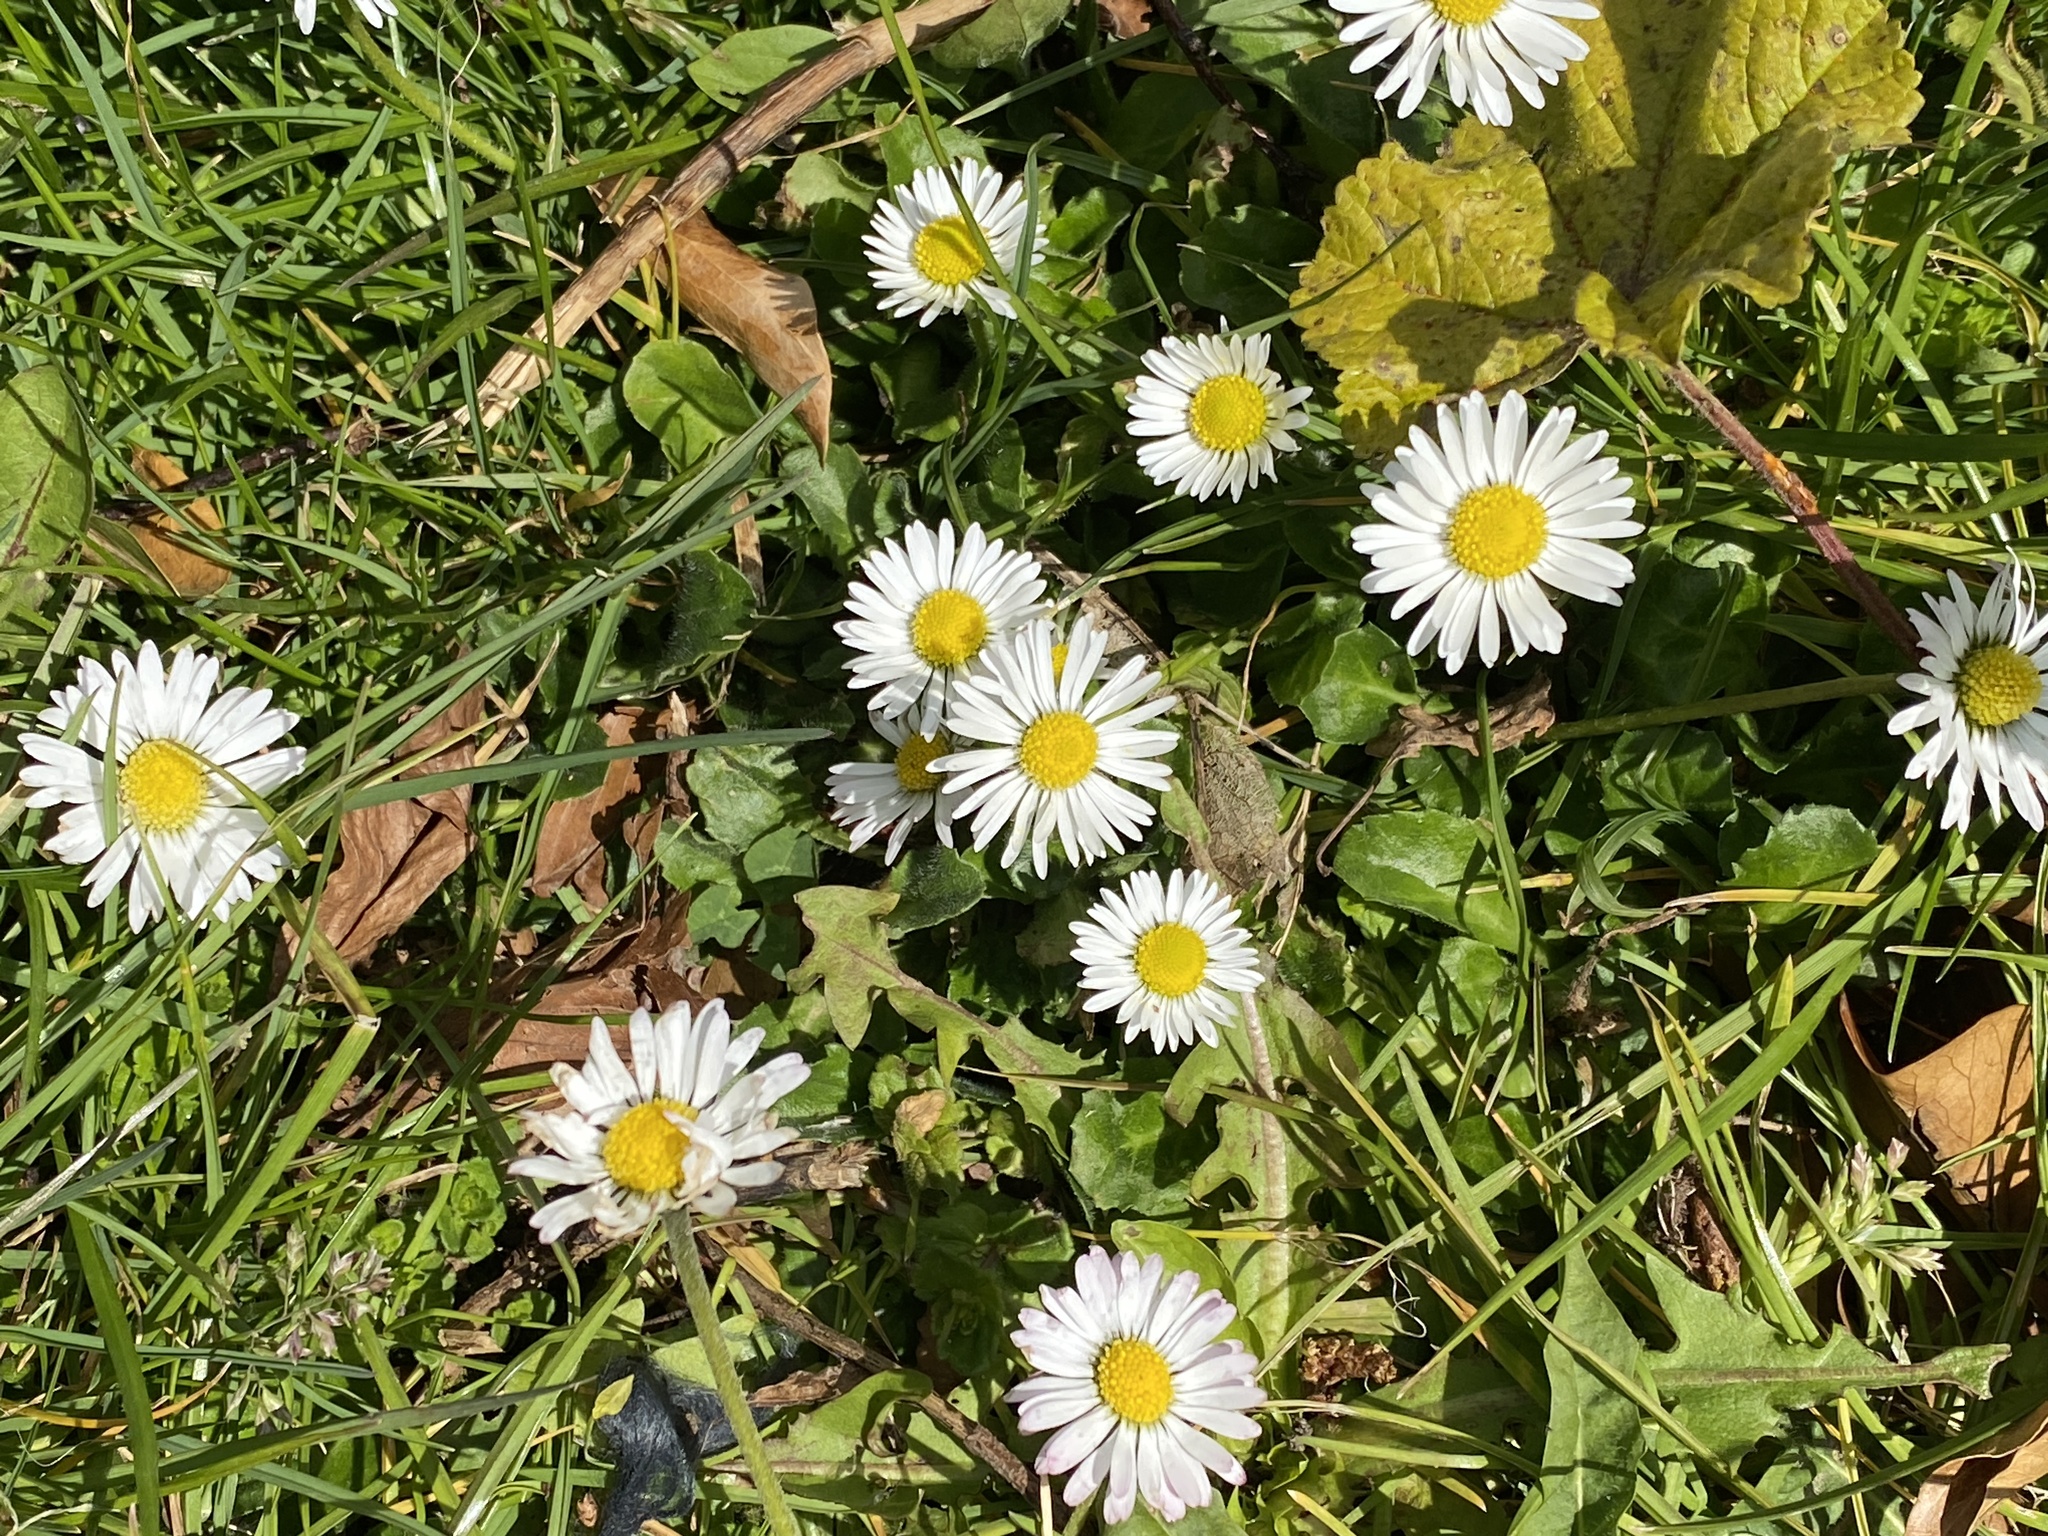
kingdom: Plantae
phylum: Tracheophyta
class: Magnoliopsida
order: Asterales
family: Asteraceae
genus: Bellis
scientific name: Bellis perennis
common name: Lawndaisy
